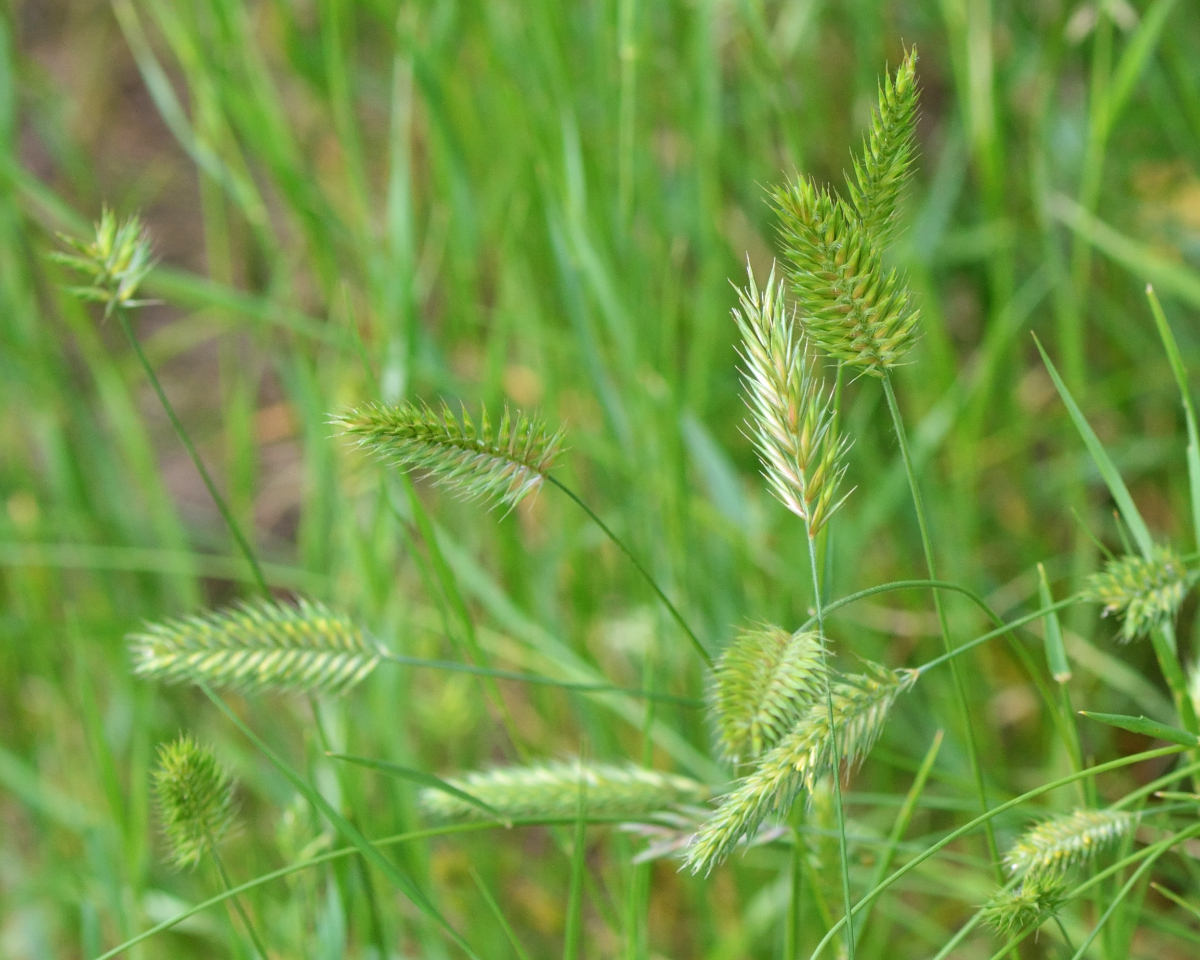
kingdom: Plantae
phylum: Tracheophyta
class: Liliopsida
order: Poales
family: Poaceae
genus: Agropyron
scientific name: Agropyron cristatum
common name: Crested wheatgrass
